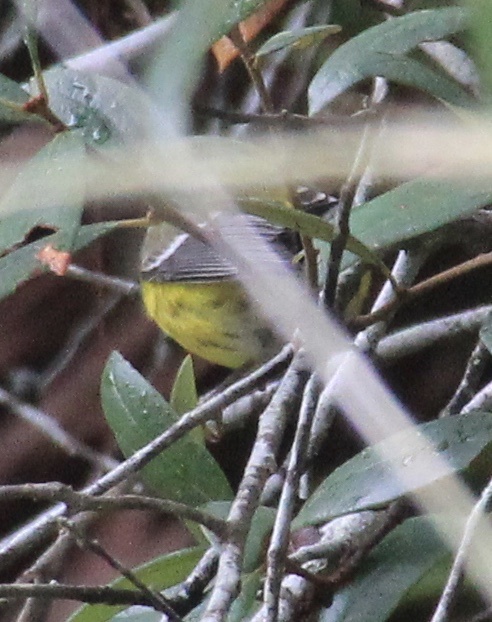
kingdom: Animalia
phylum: Chordata
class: Aves
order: Passeriformes
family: Parulidae
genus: Setophaga
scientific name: Setophaga magnolia
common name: Magnolia warbler
